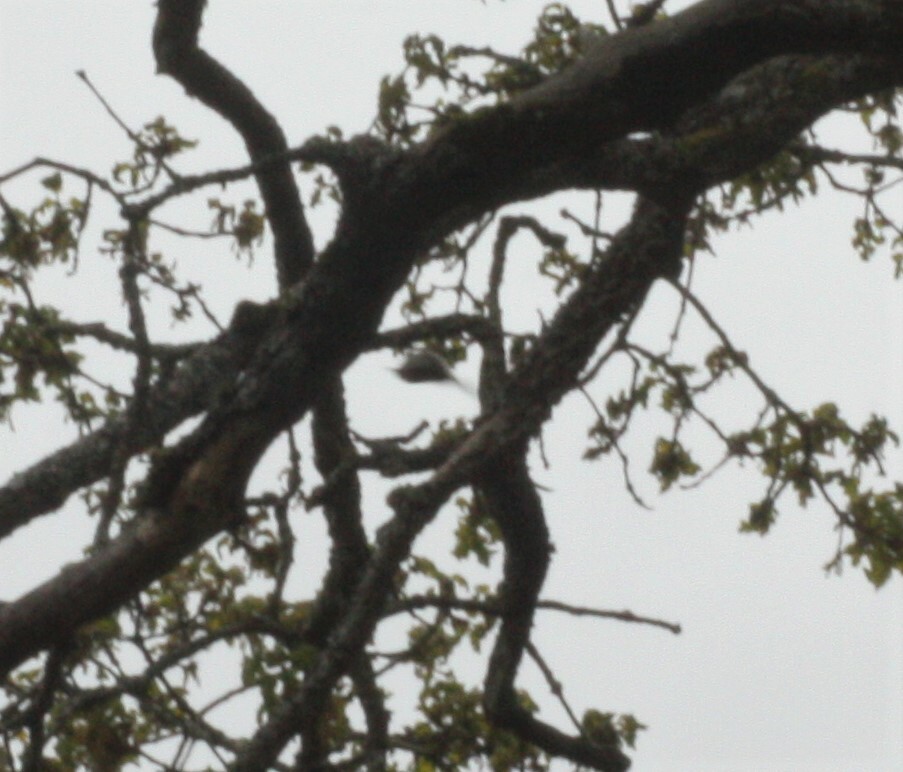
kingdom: Animalia
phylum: Chordata
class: Aves
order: Passeriformes
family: Certhiidae
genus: Certhia
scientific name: Certhia americana
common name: Brown creeper
